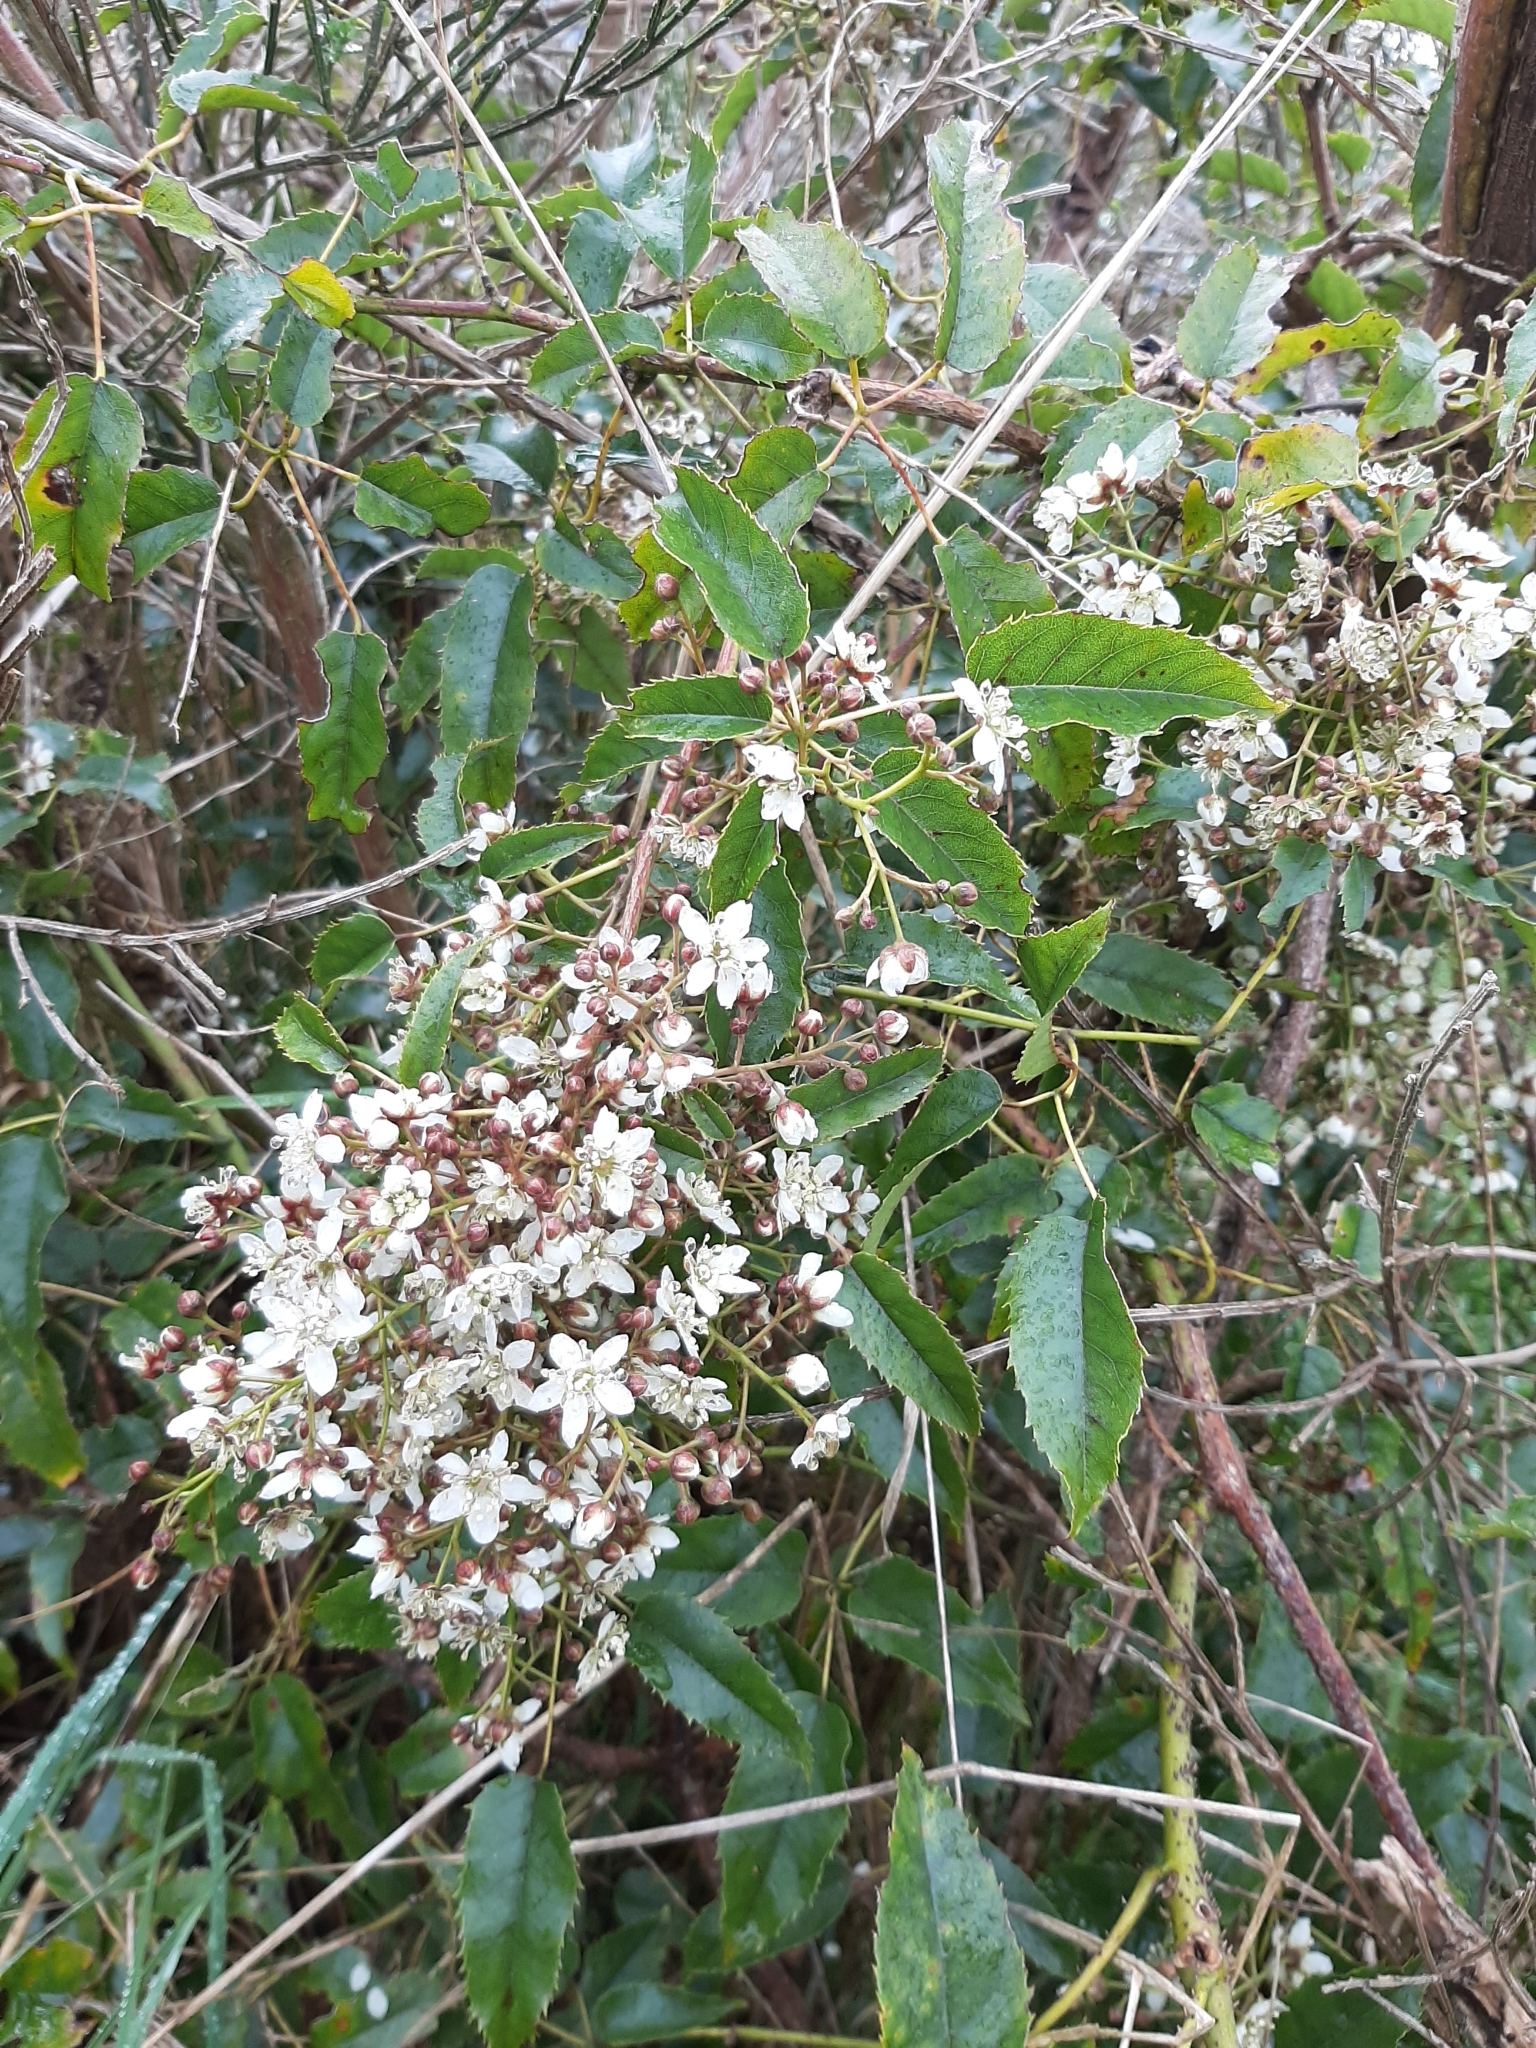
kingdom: Plantae
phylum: Tracheophyta
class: Magnoliopsida
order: Rosales
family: Rosaceae
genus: Rubus
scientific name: Rubus cissoides
